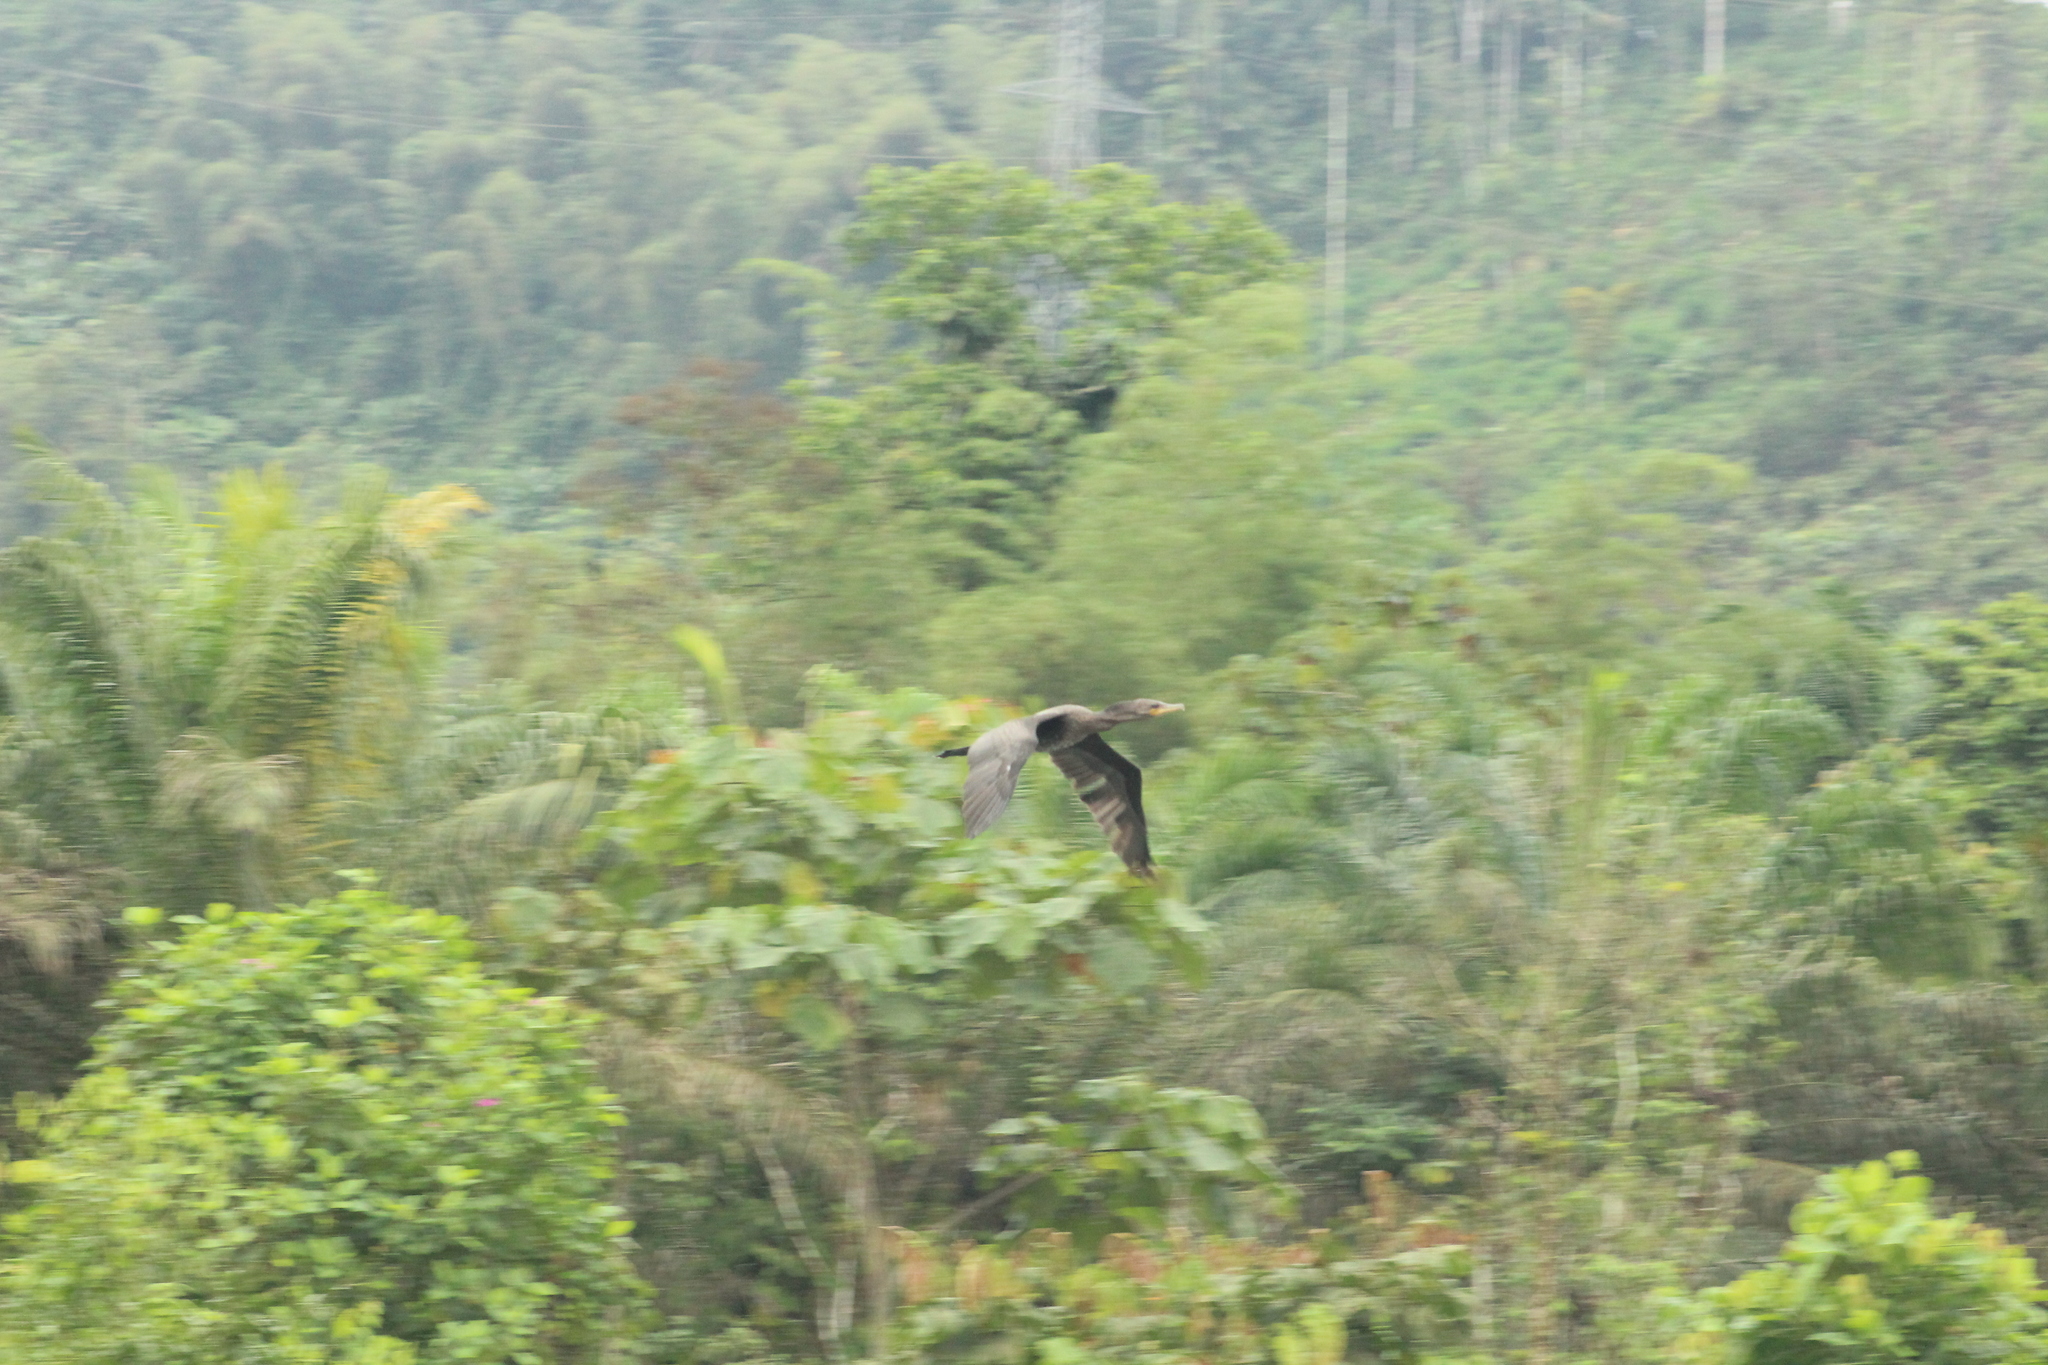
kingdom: Animalia
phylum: Chordata
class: Aves
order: Suliformes
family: Phalacrocoracidae
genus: Phalacrocorax
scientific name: Phalacrocorax brasilianus
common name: Neotropic cormorant
